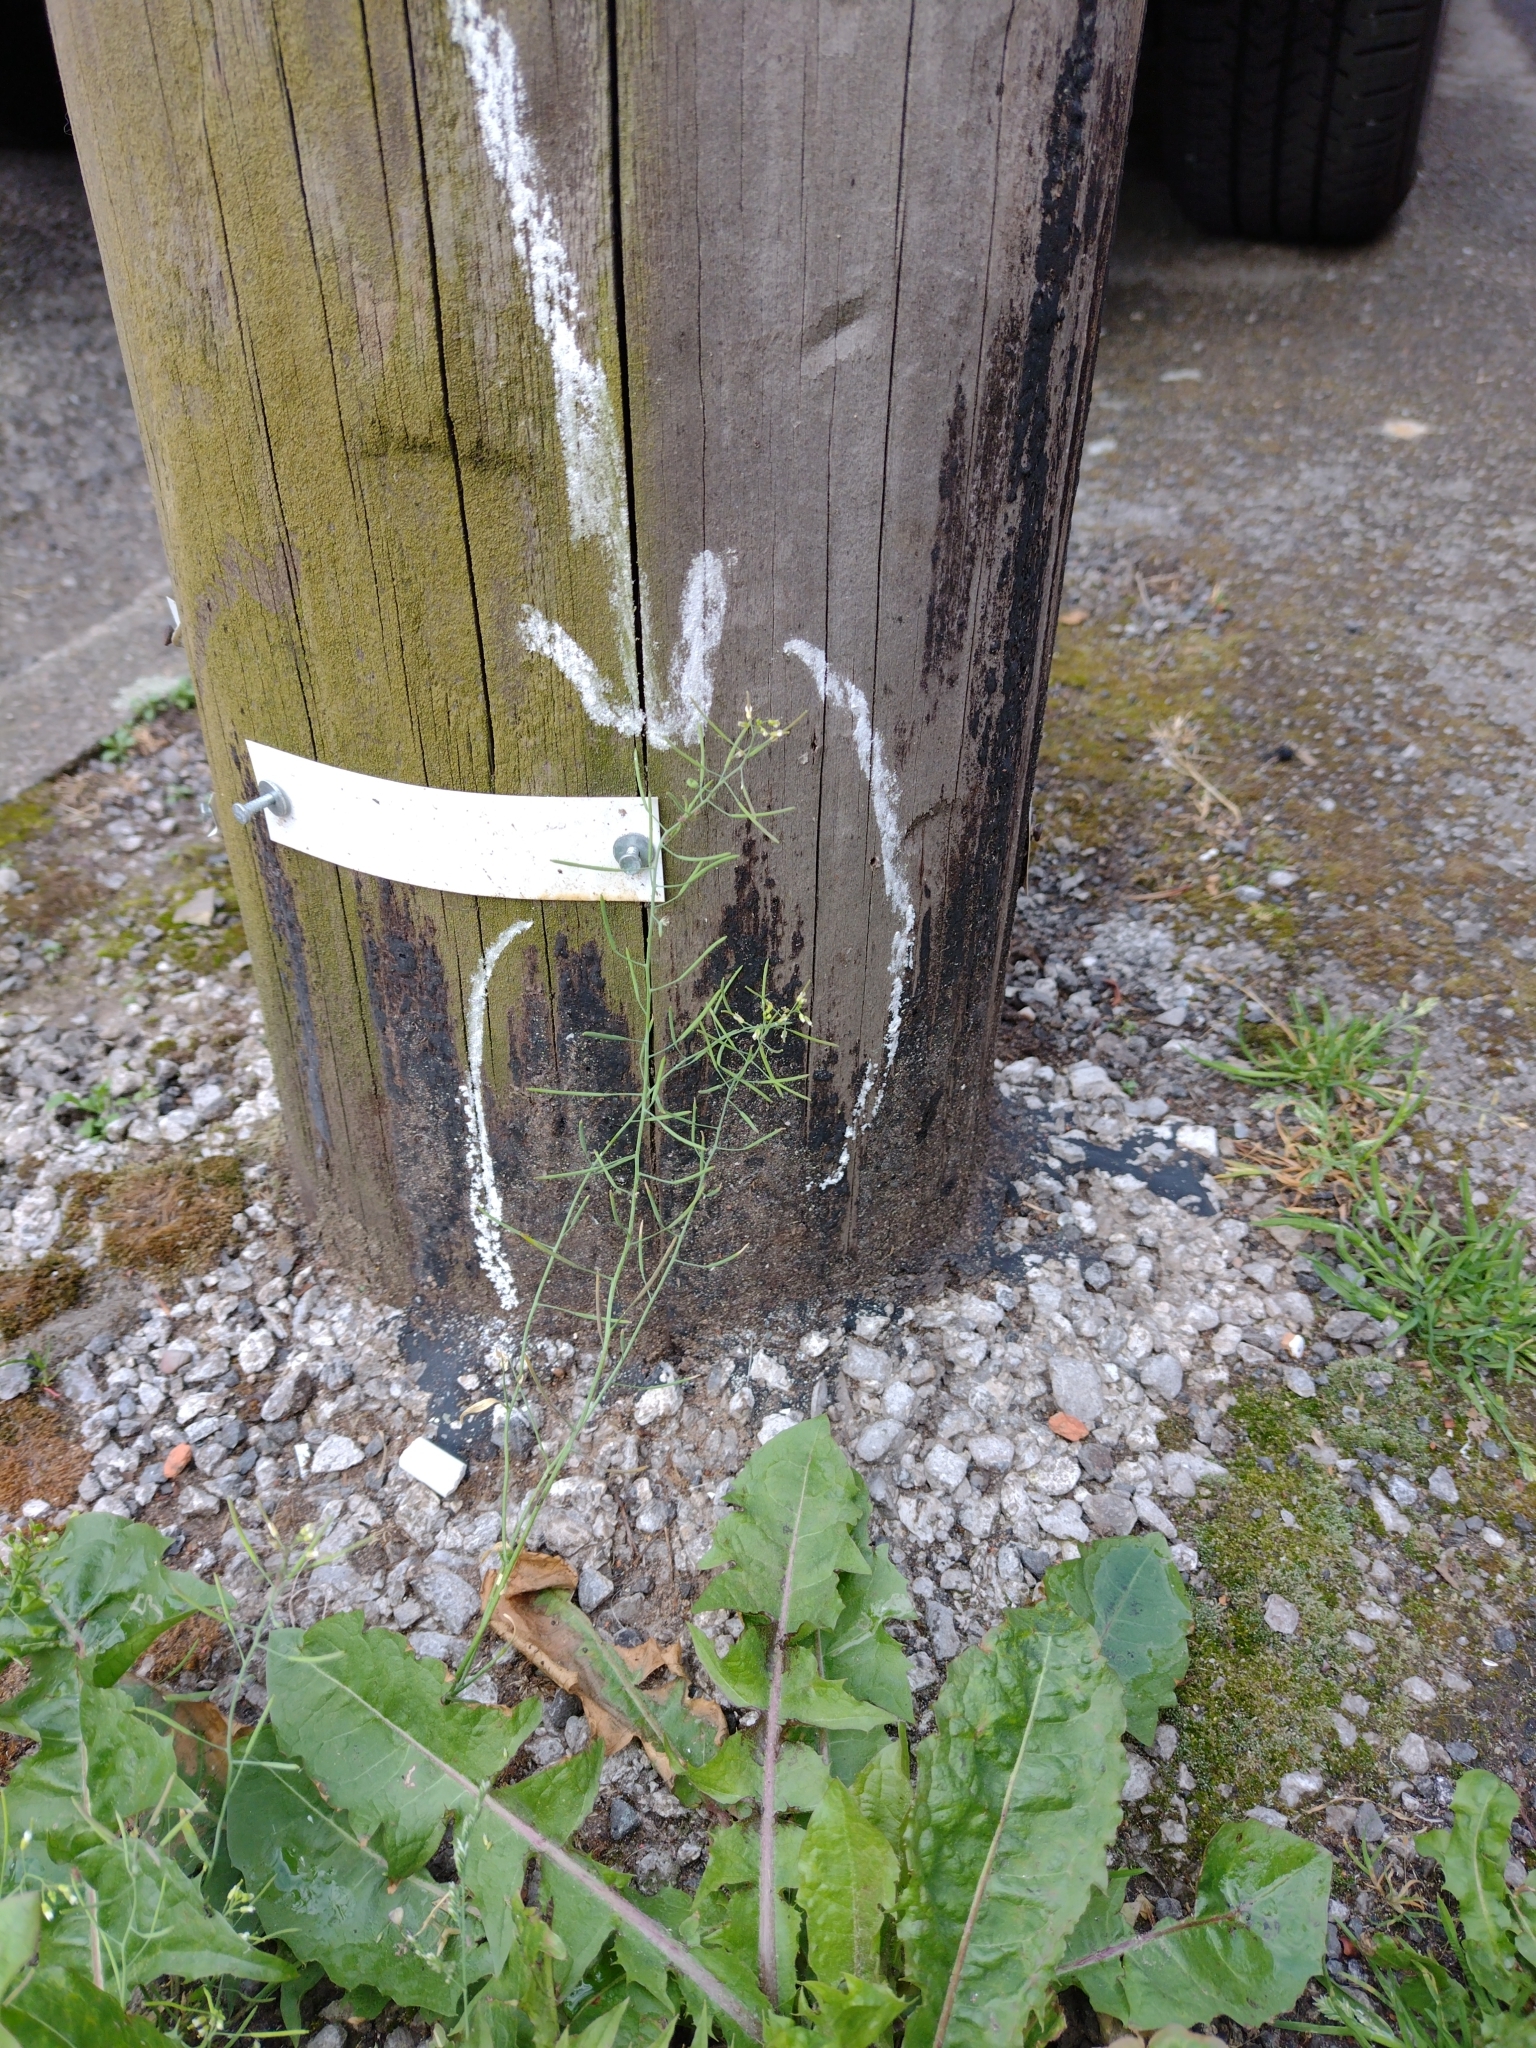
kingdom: Plantae
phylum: Tracheophyta
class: Magnoliopsida
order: Brassicales
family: Brassicaceae
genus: Arabidopsis
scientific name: Arabidopsis thaliana
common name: Thale cress
